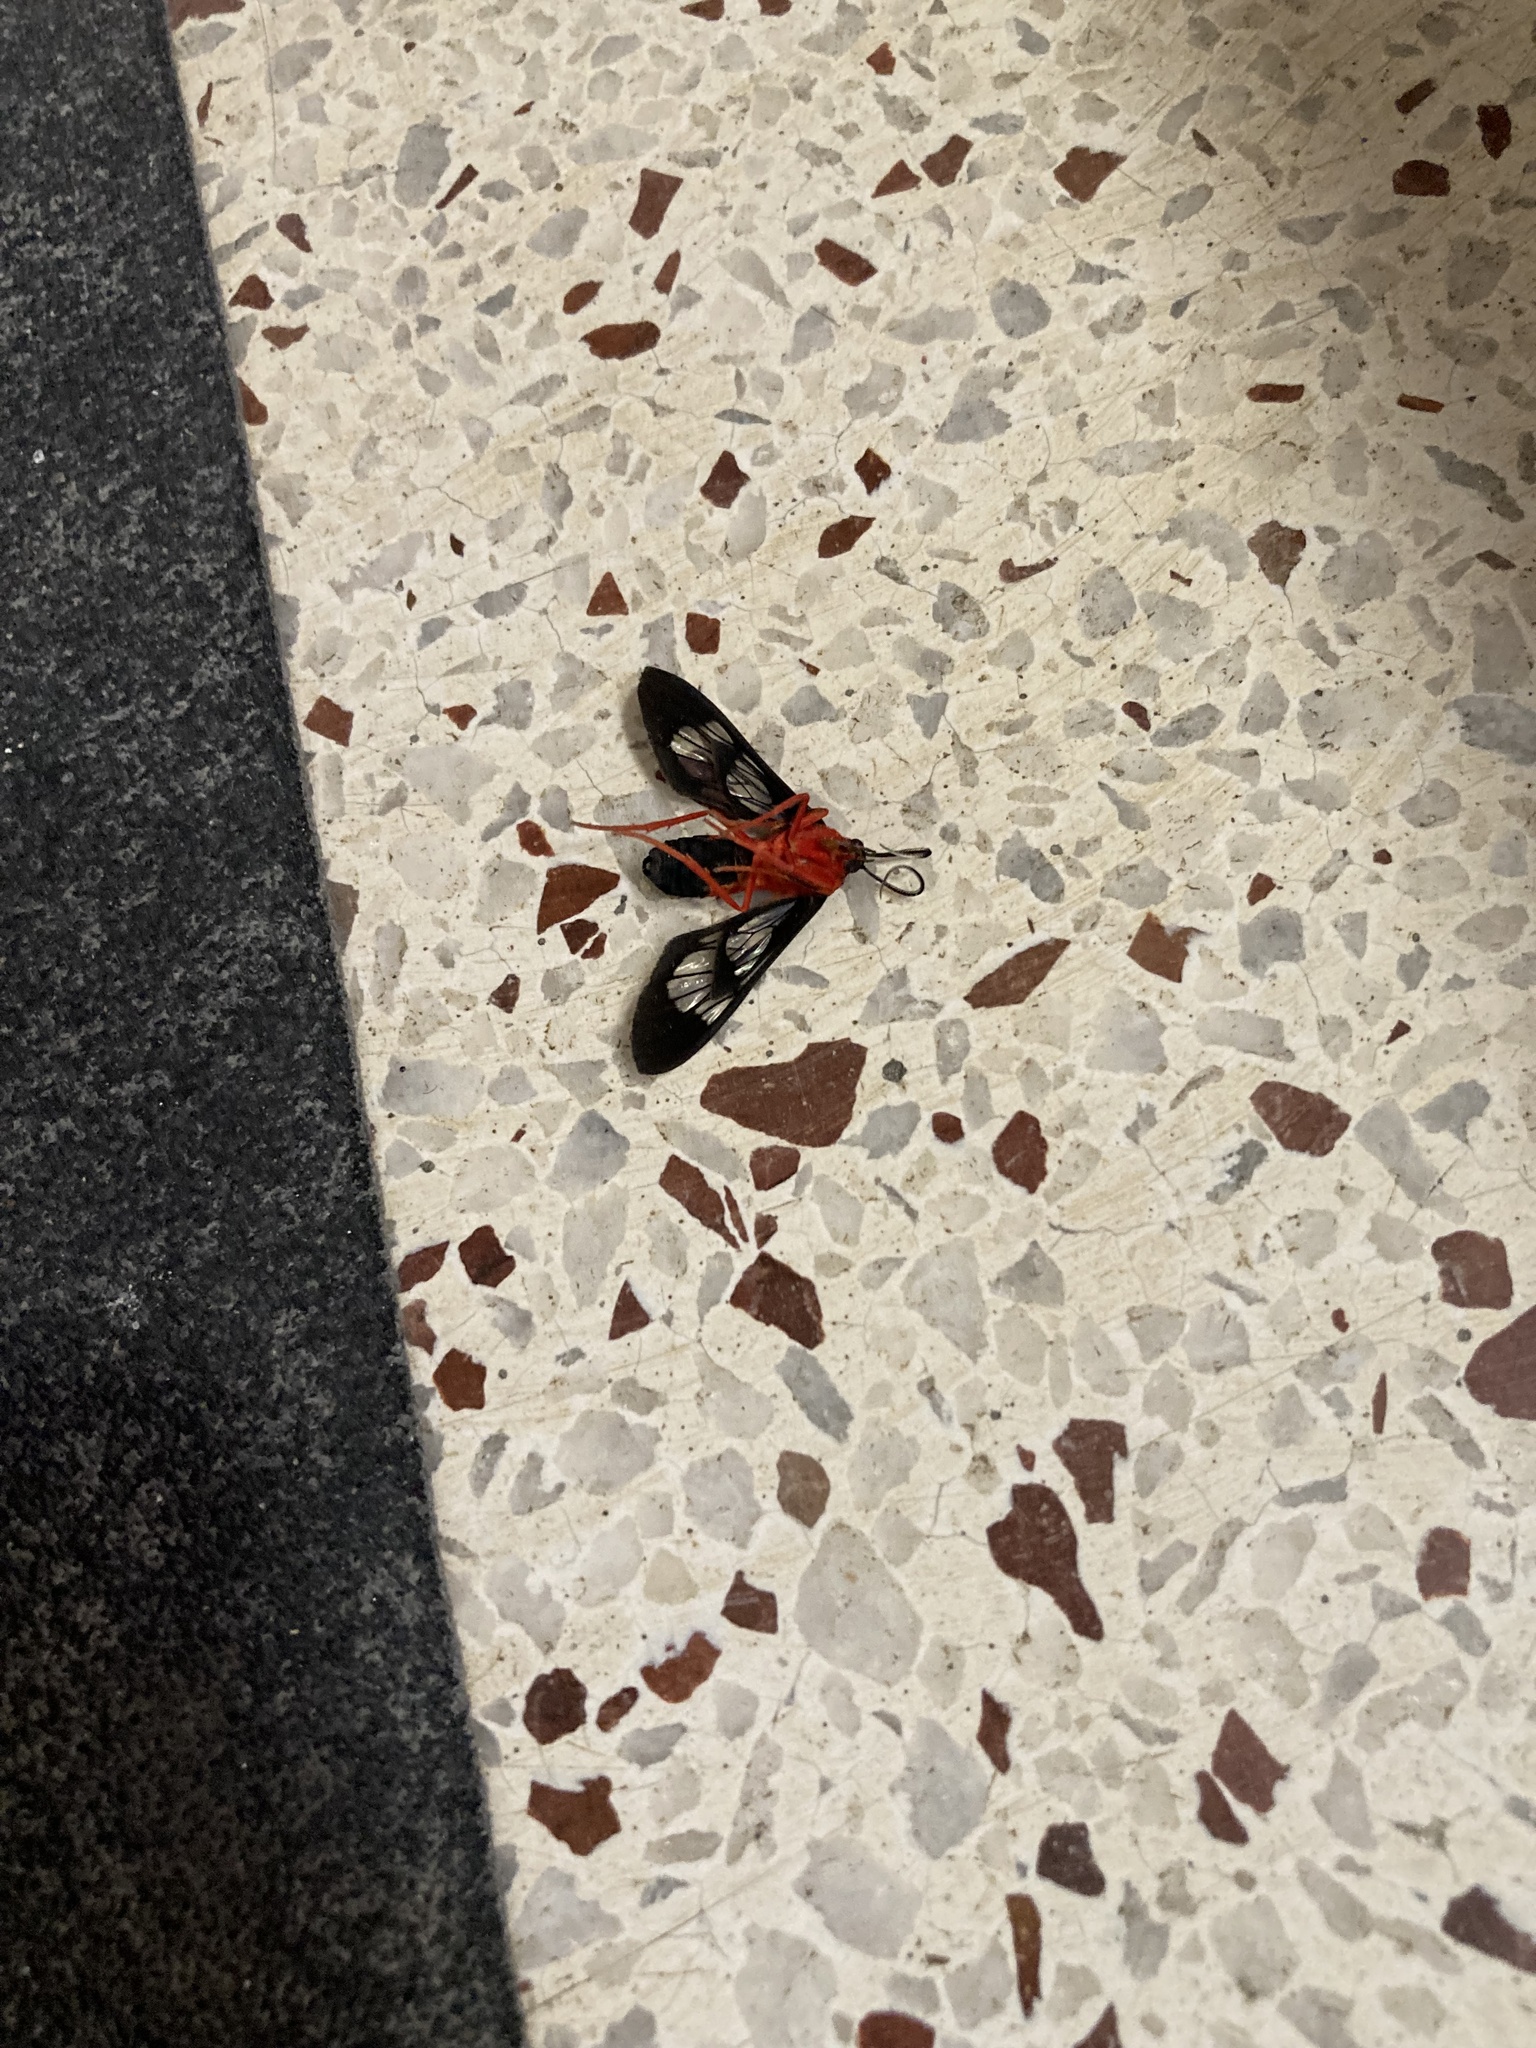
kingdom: Animalia
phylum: Arthropoda
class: Insecta
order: Lepidoptera
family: Erebidae
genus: Cosmosoma
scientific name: Cosmosoma myrodora
